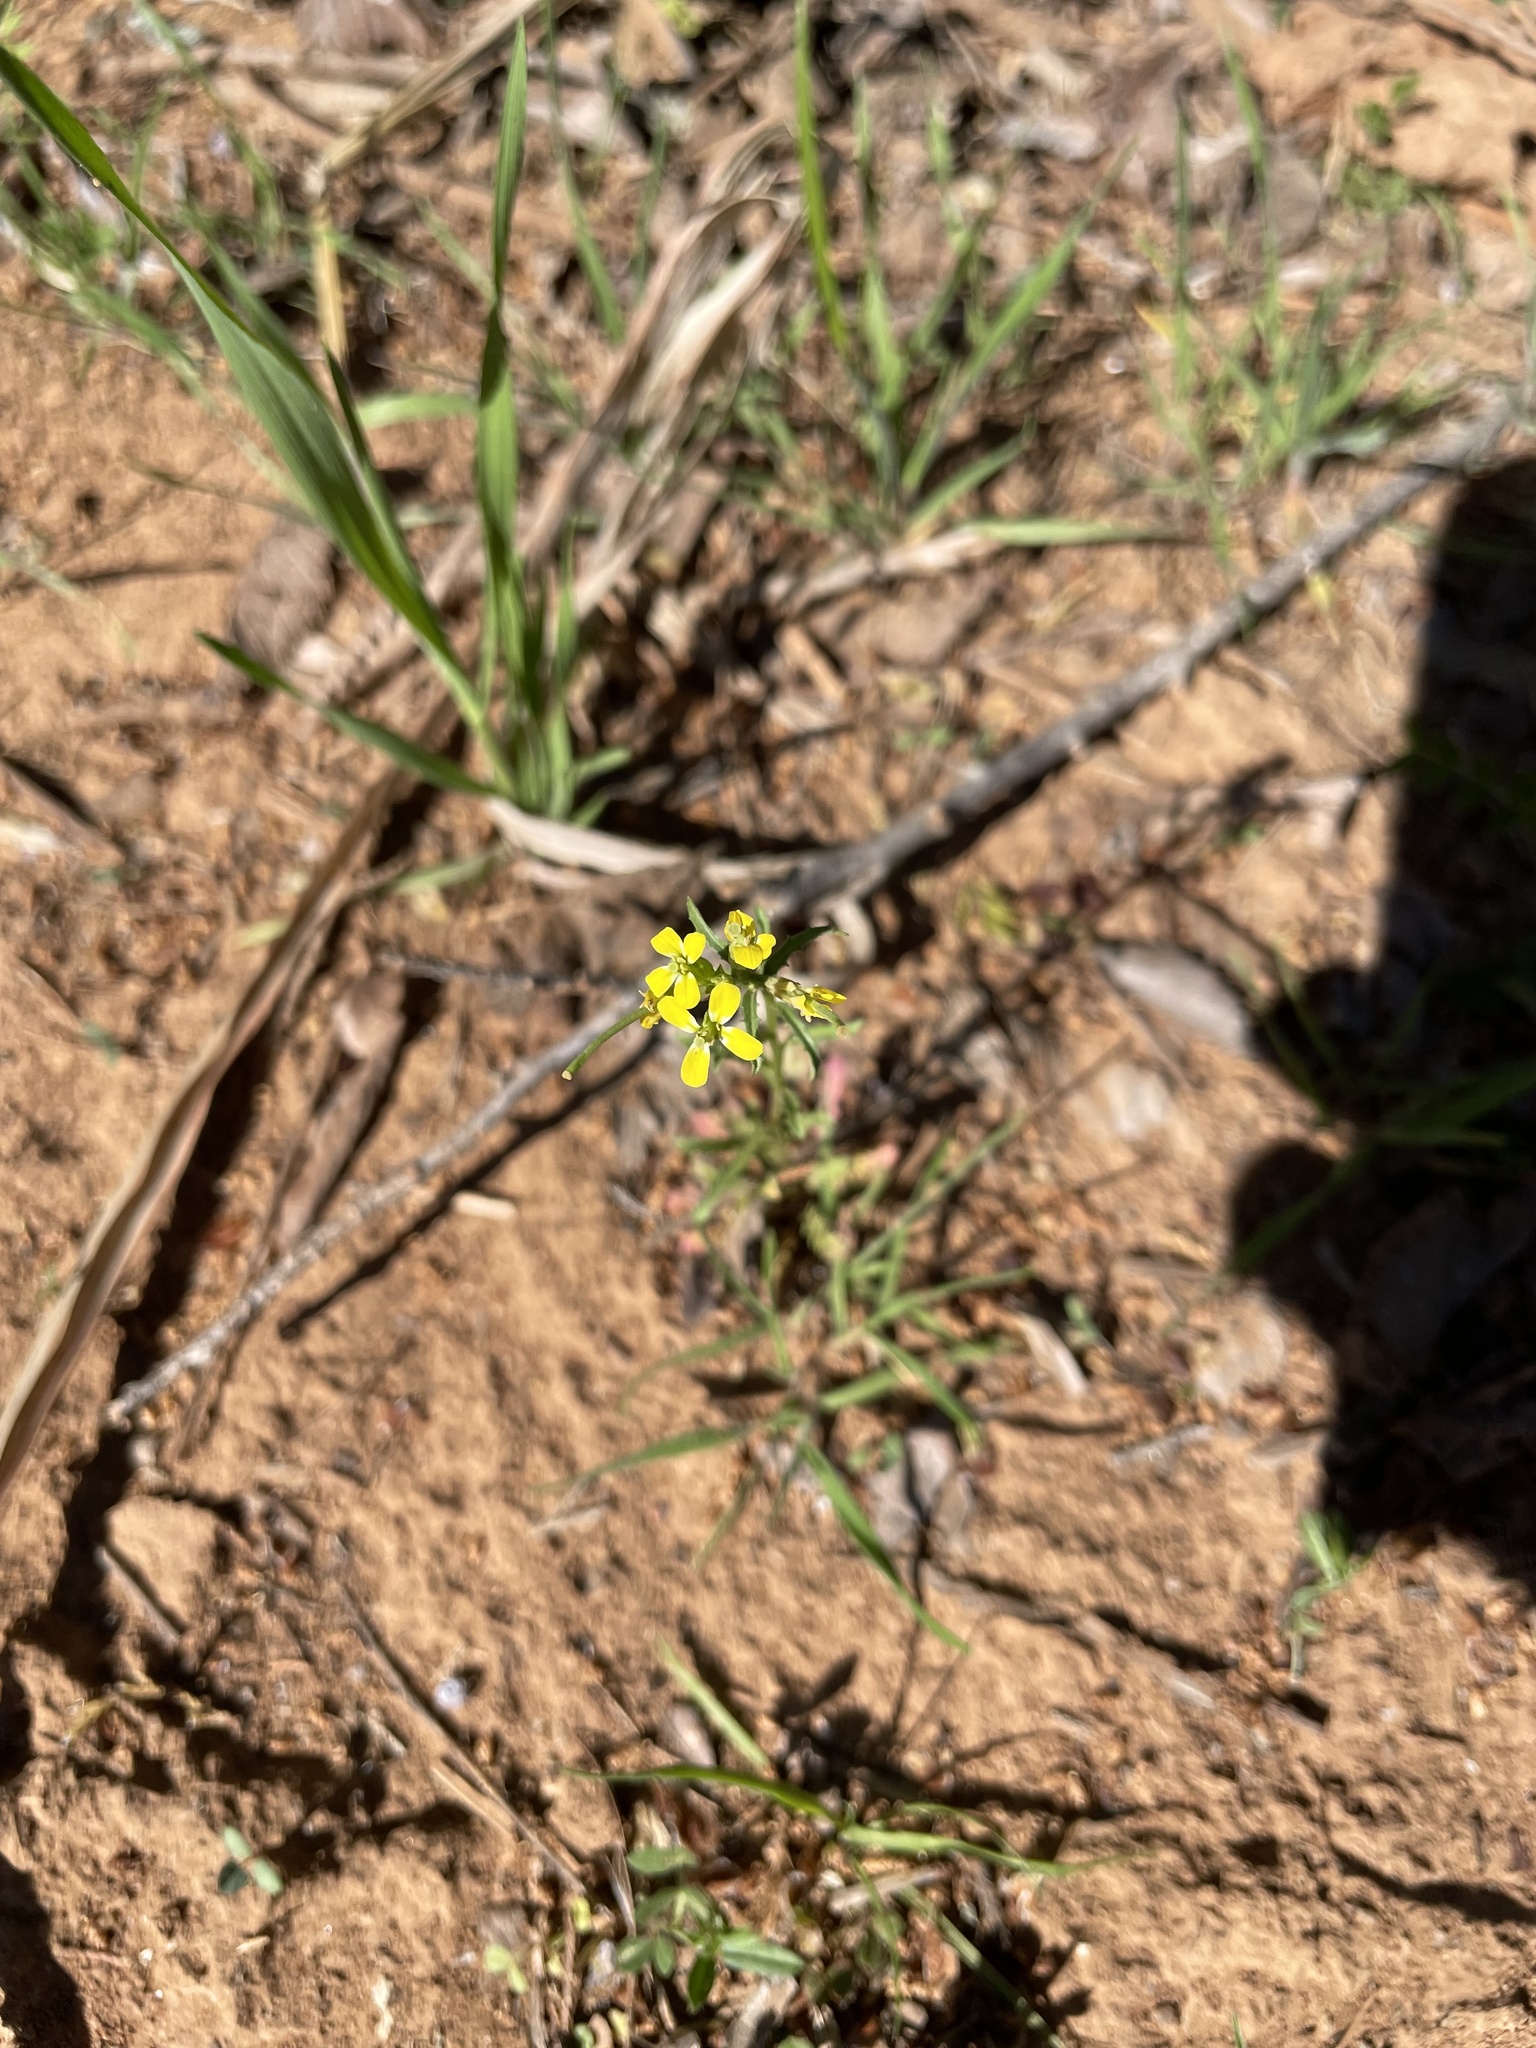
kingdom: Plantae
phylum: Tracheophyta
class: Magnoliopsida
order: Brassicales
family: Brassicaceae
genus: Erysimum
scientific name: Erysimum repandum
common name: Spreading wallflower
